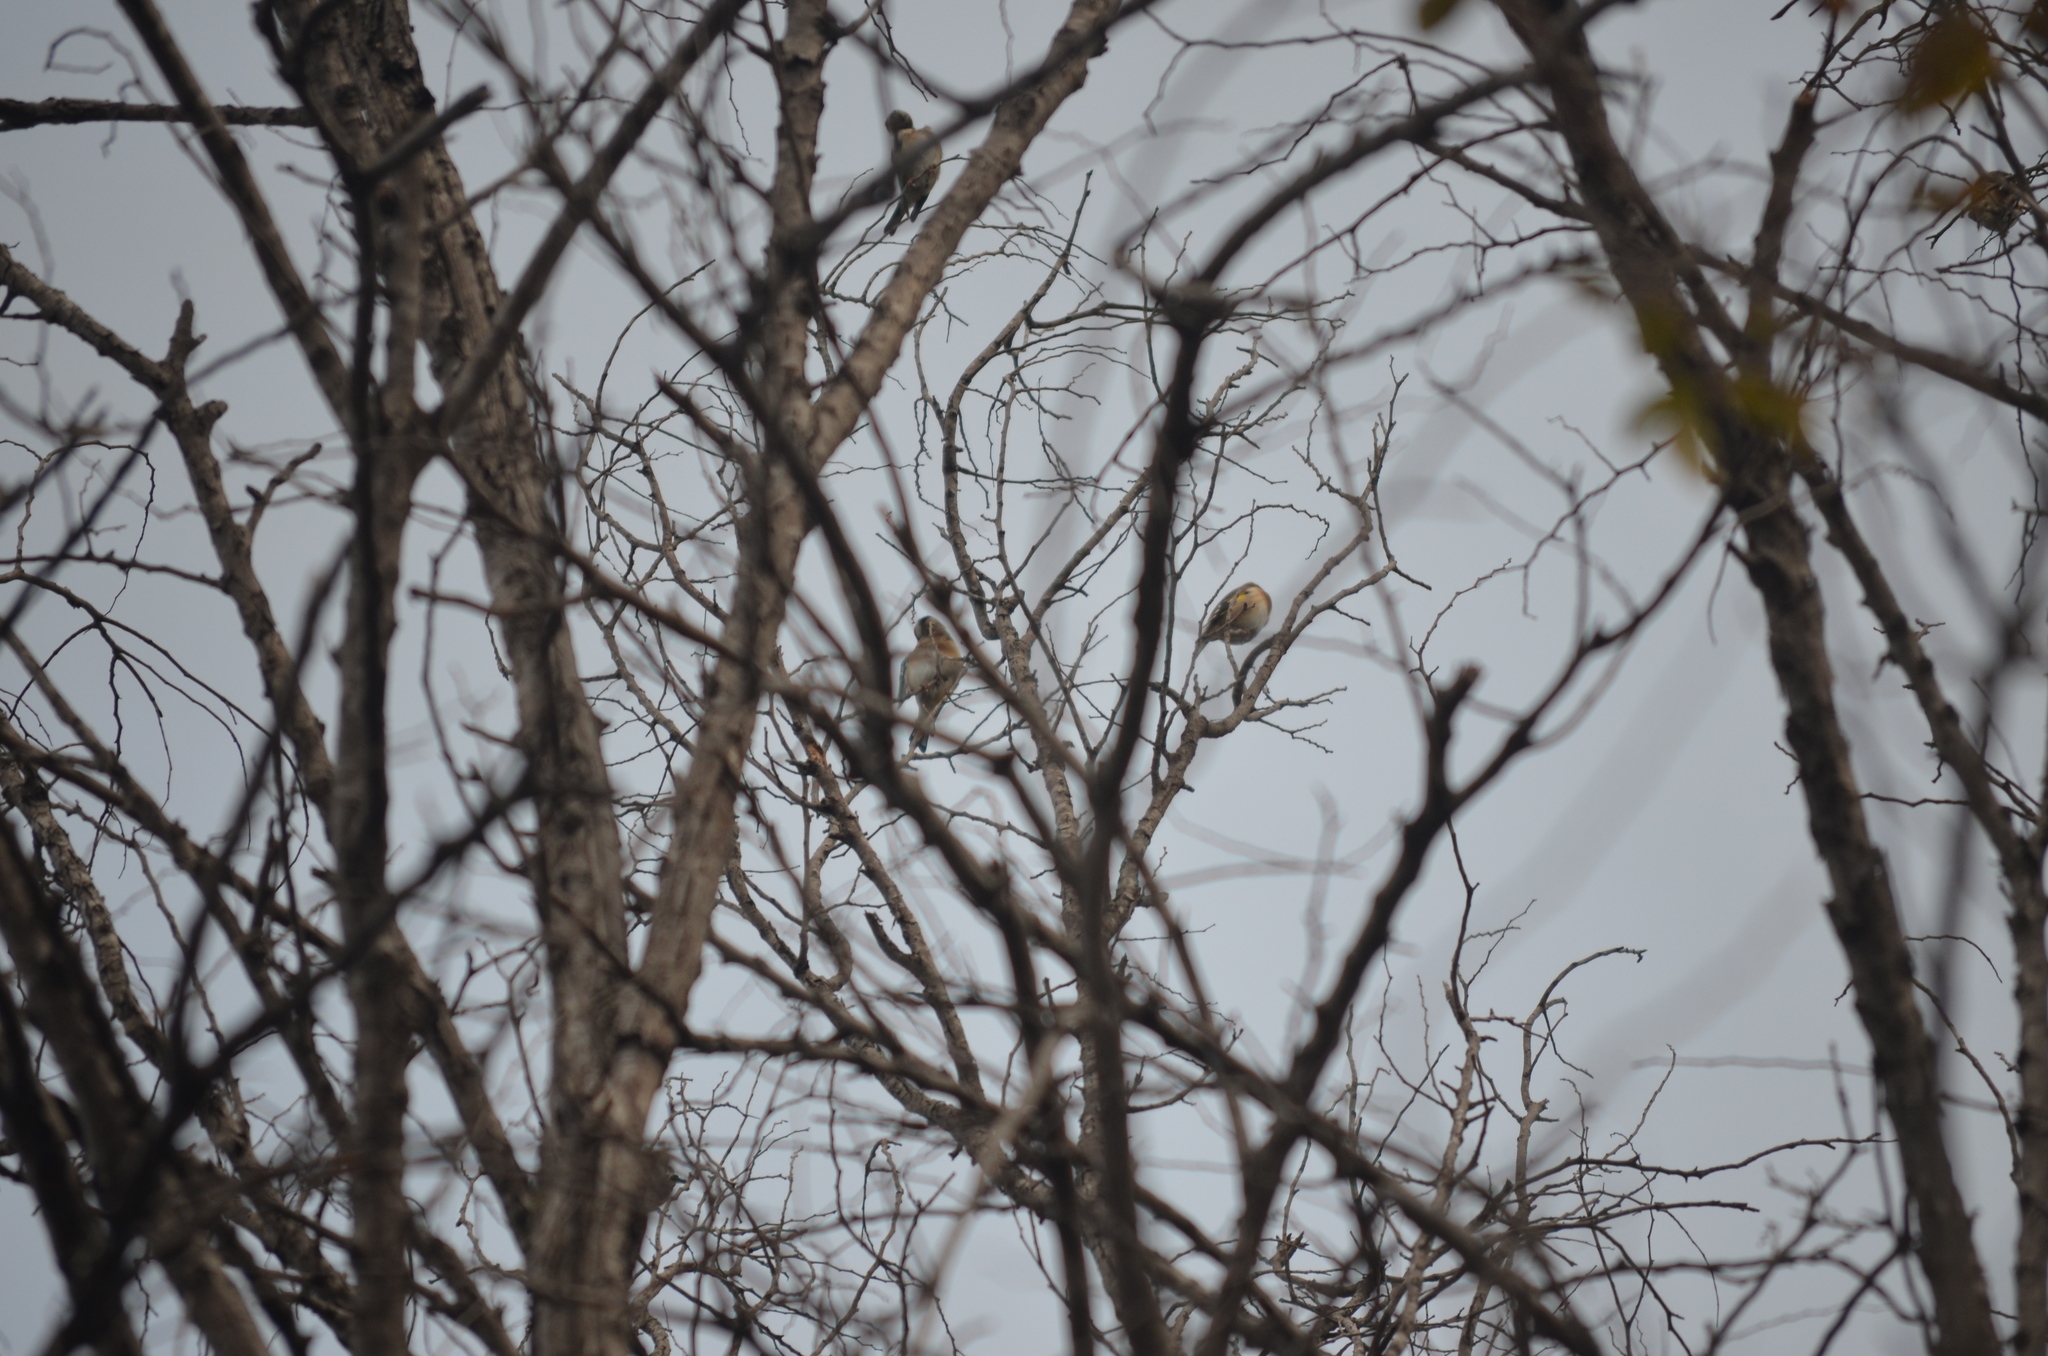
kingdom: Animalia
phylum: Chordata
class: Aves
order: Passeriformes
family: Fringillidae
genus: Carduelis
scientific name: Carduelis carduelis
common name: European goldfinch
